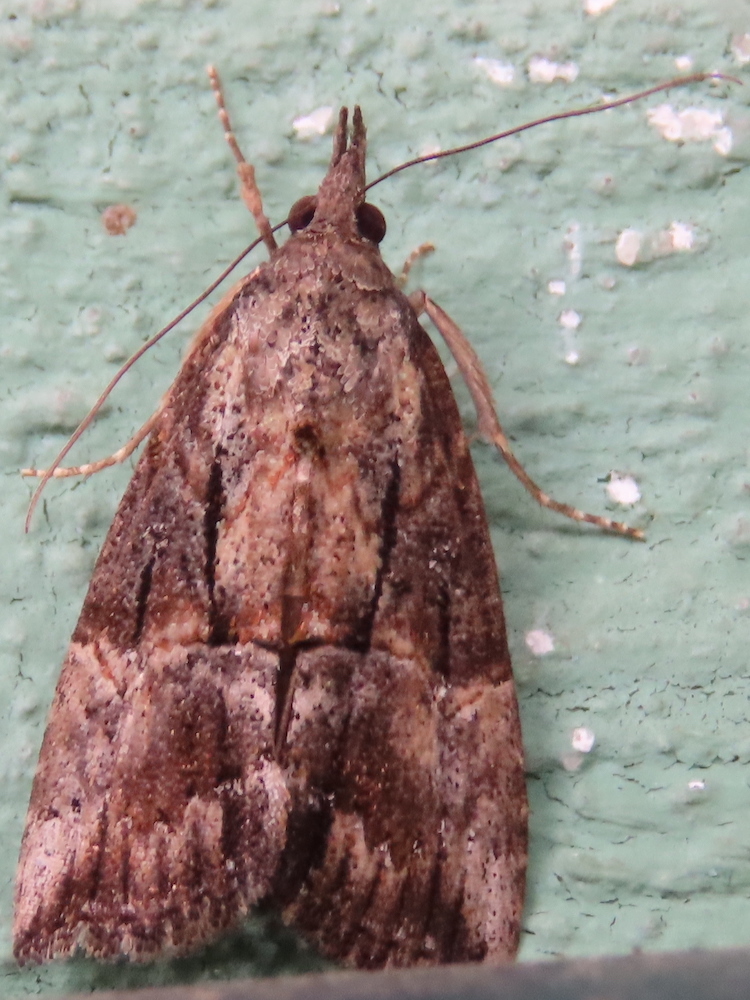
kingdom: Animalia
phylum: Arthropoda
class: Insecta
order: Lepidoptera
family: Erebidae
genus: Hypena
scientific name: Hypena scabra
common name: Green cloverworm
